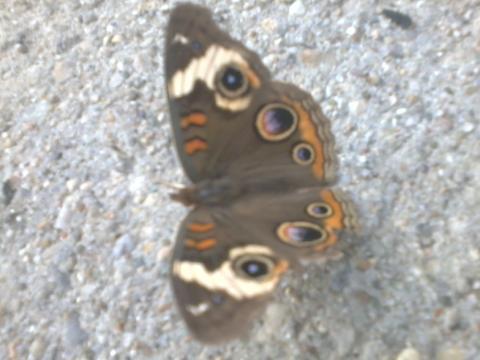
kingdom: Animalia
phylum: Arthropoda
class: Insecta
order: Lepidoptera
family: Nymphalidae
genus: Junonia
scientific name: Junonia coenia
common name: Common buckeye
